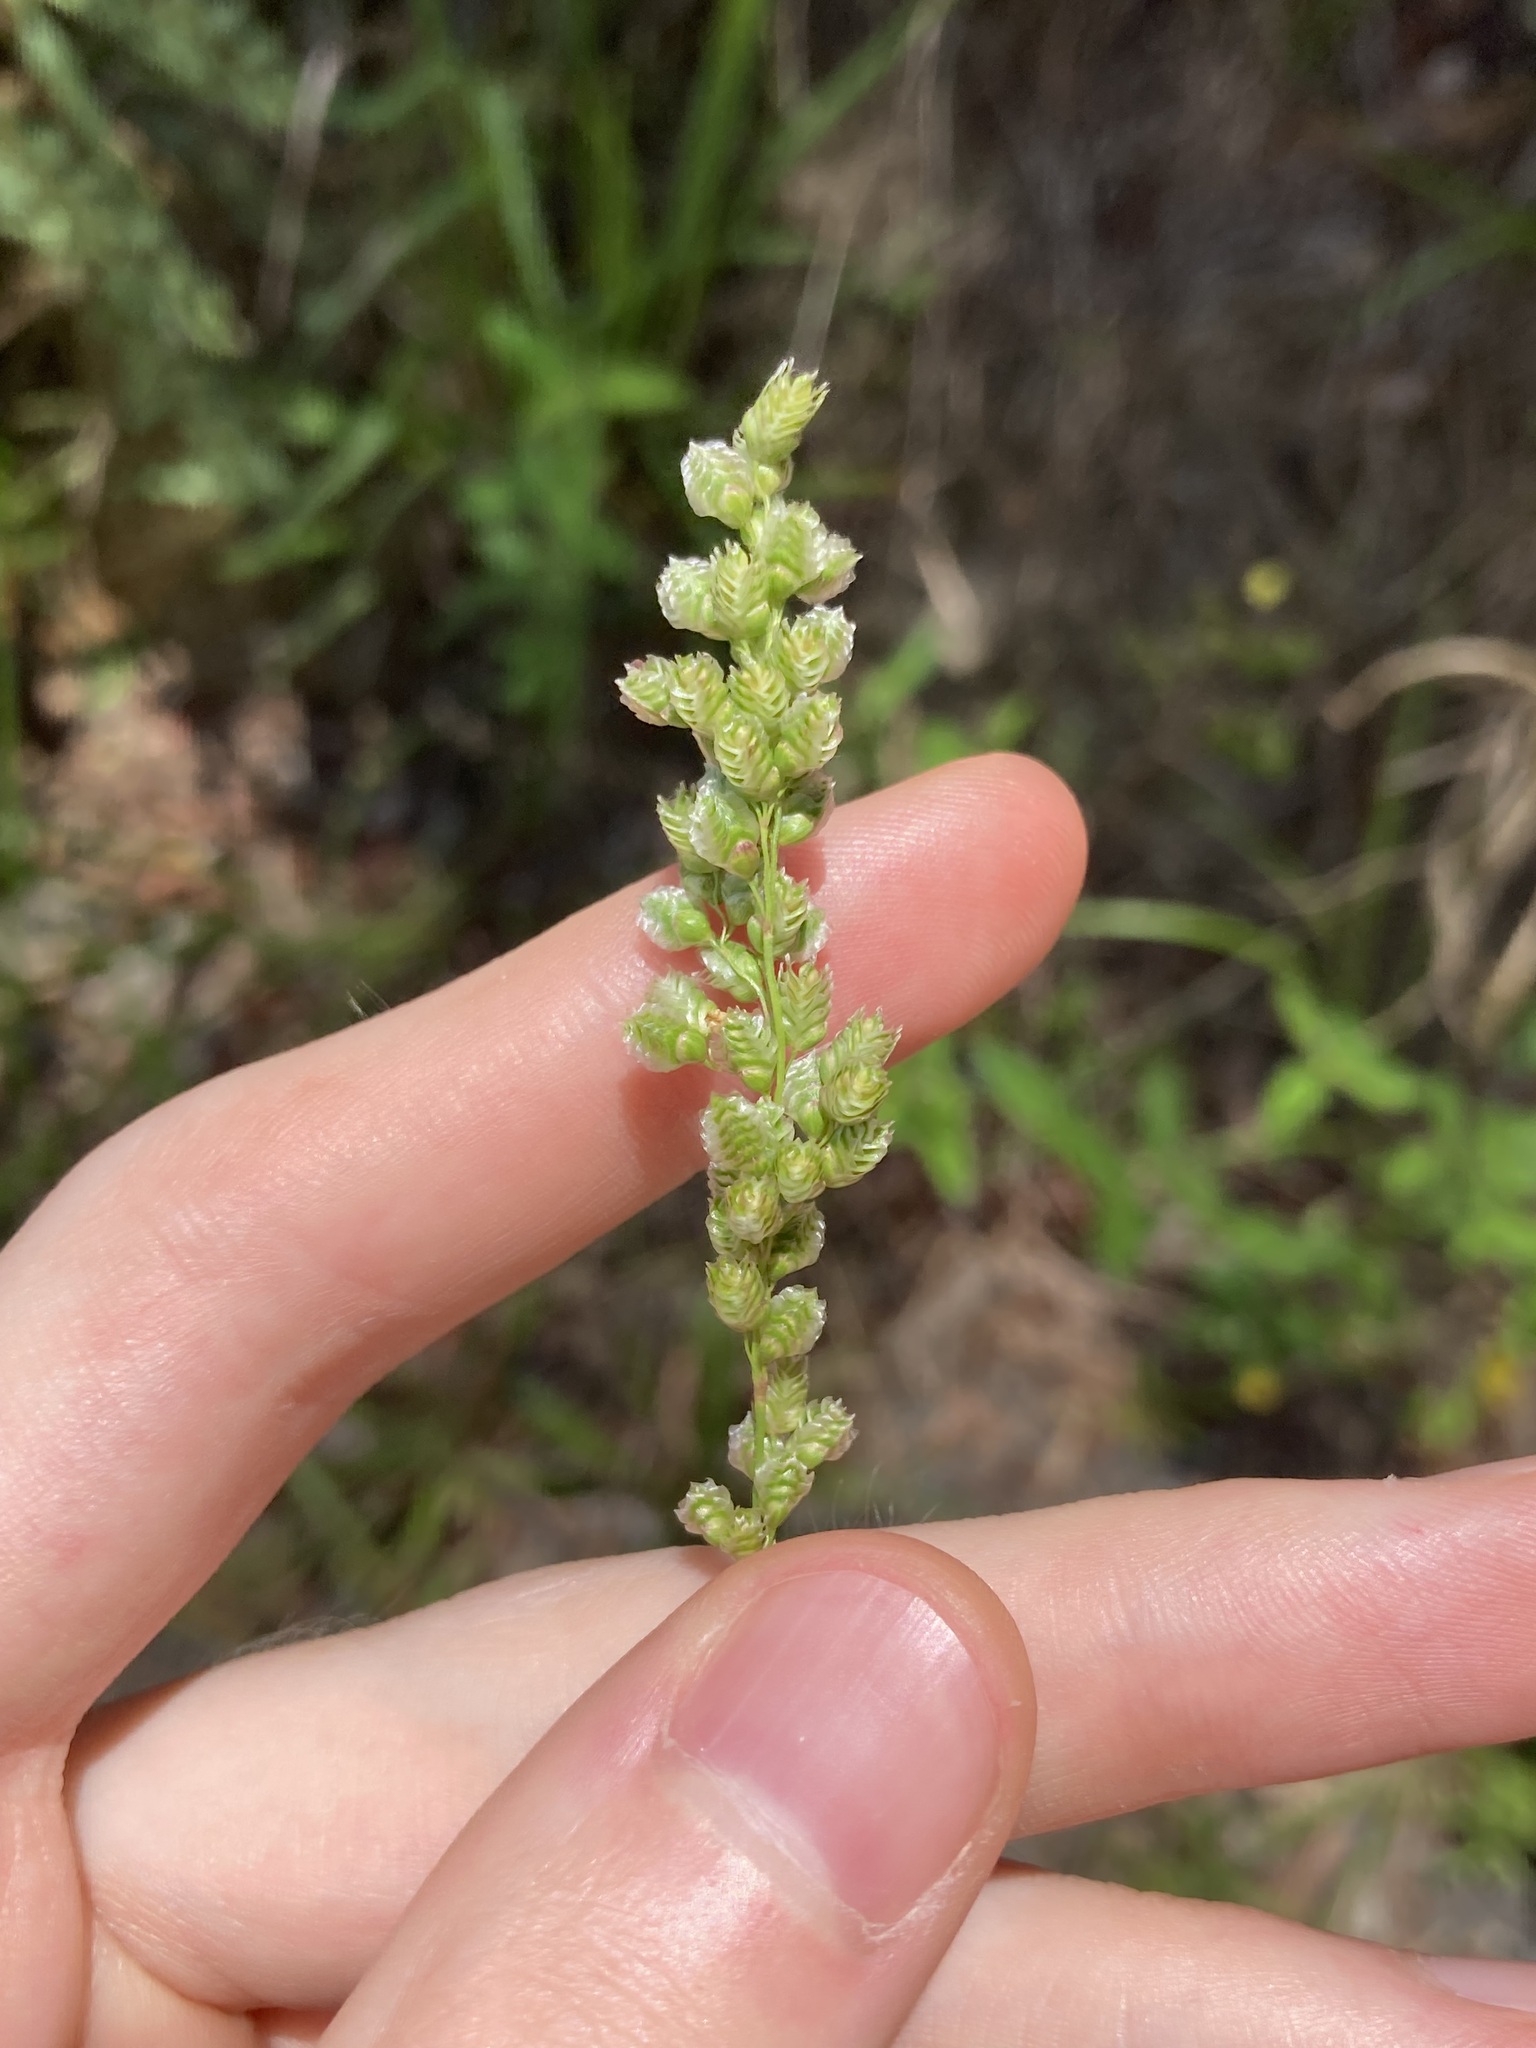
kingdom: Plantae
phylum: Tracheophyta
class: Liliopsida
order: Poales
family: Poaceae
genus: Chascolytrum
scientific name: Chascolytrum subaristatum
